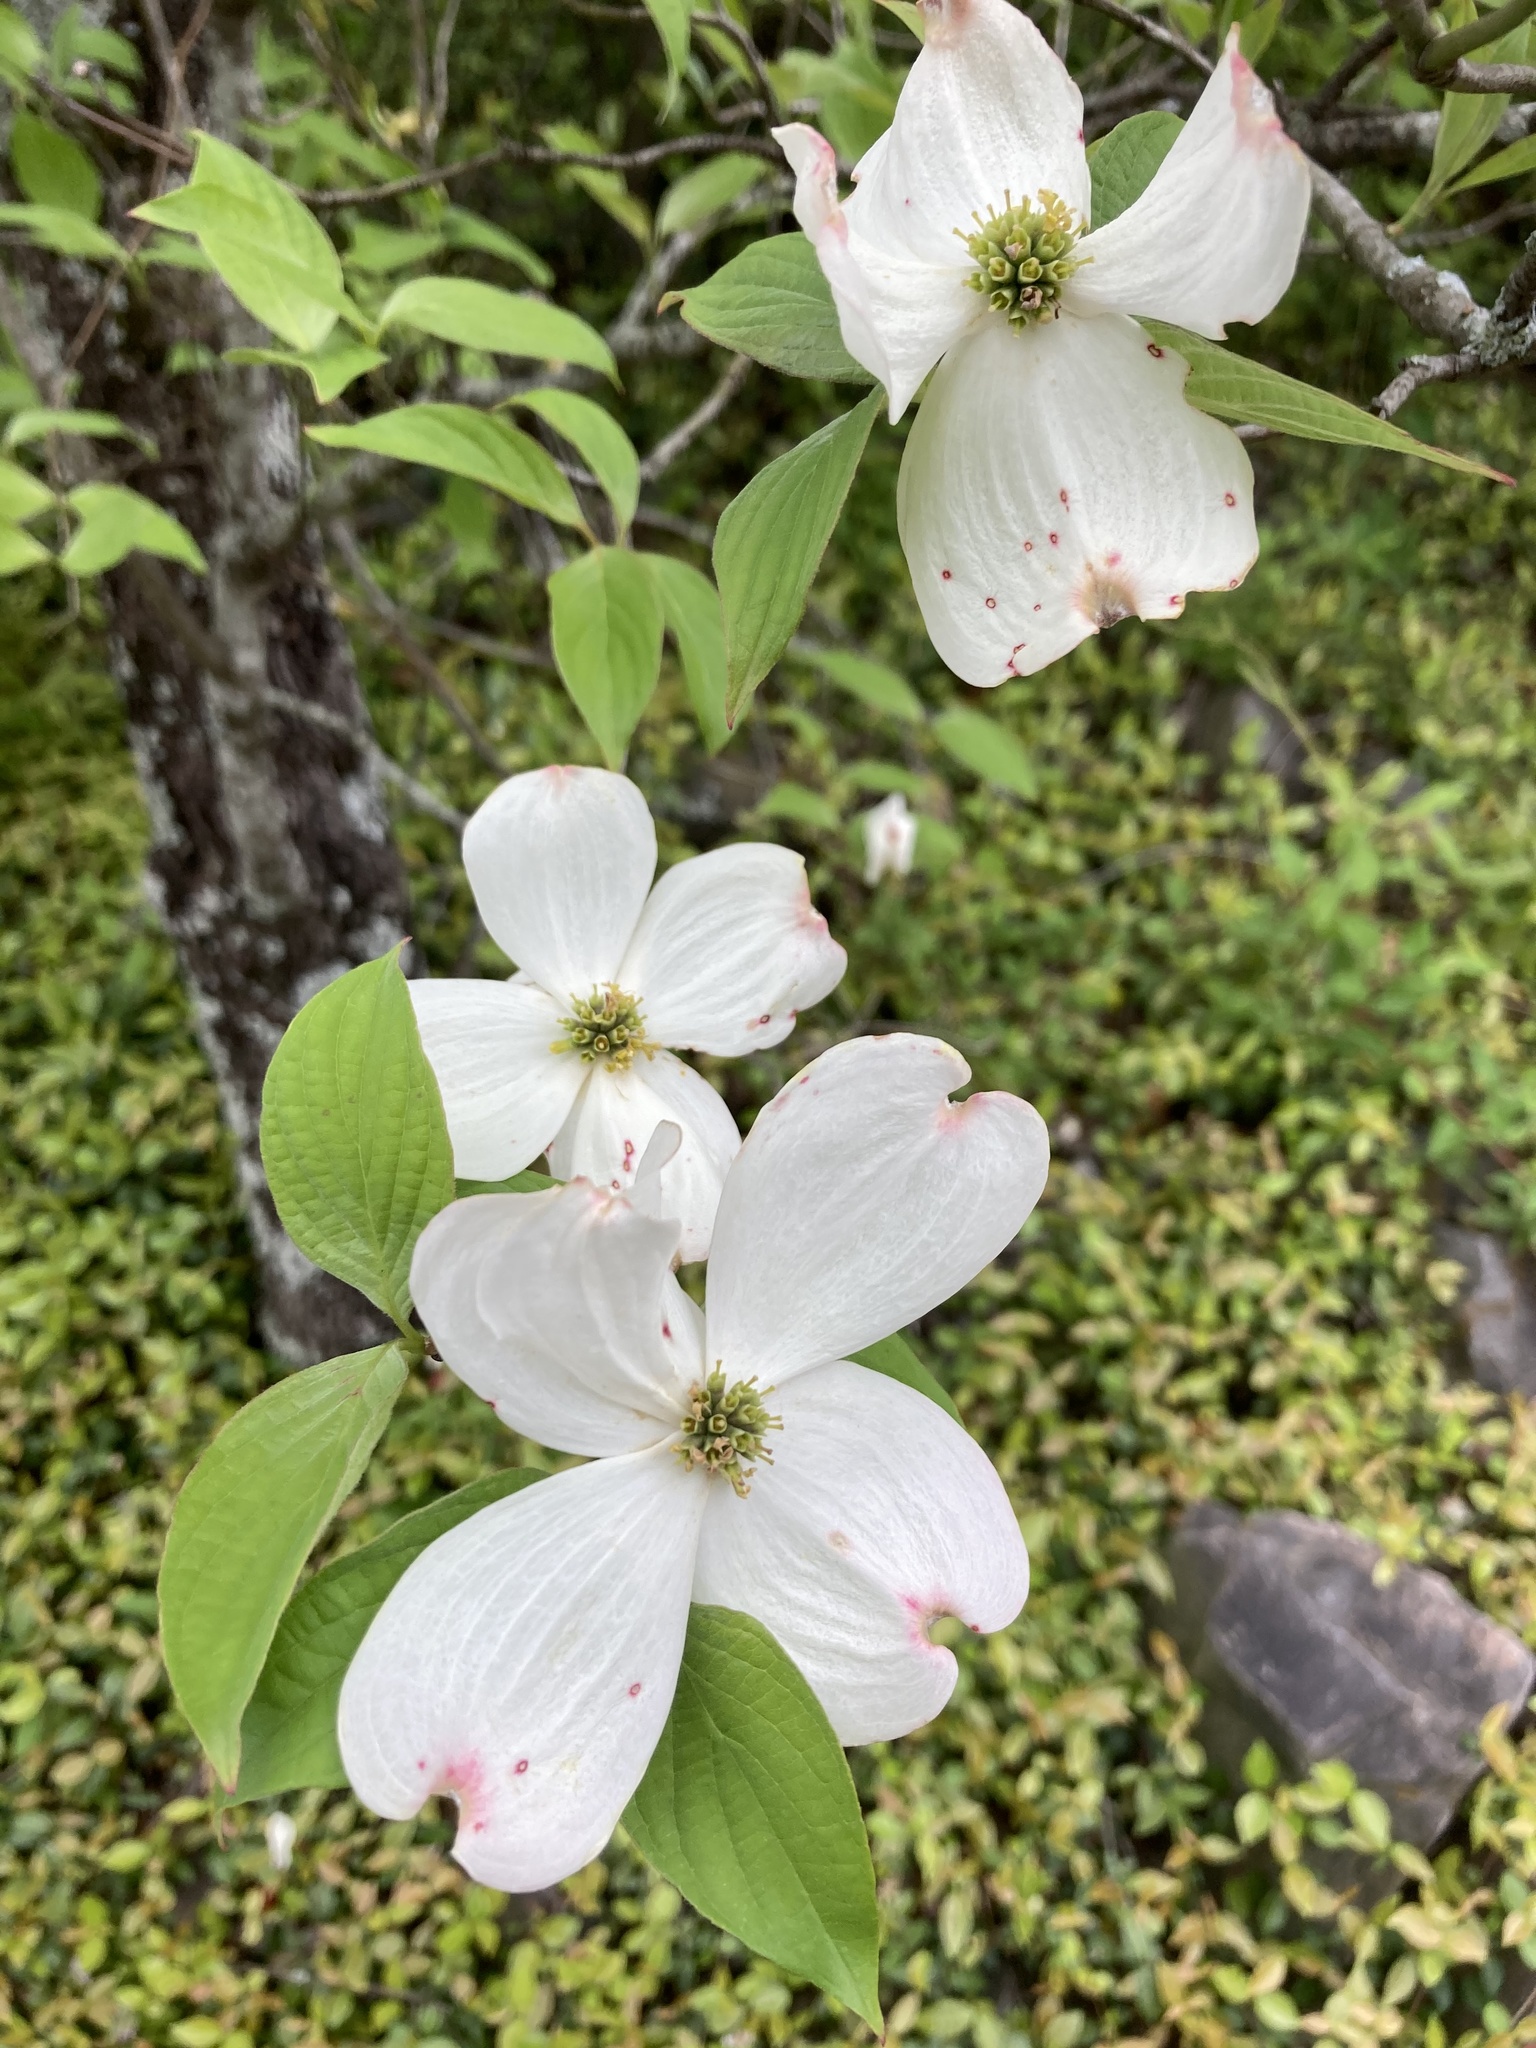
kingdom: Plantae
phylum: Tracheophyta
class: Magnoliopsida
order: Cornales
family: Cornaceae
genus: Cornus
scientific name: Cornus florida
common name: Flowering dogwood
